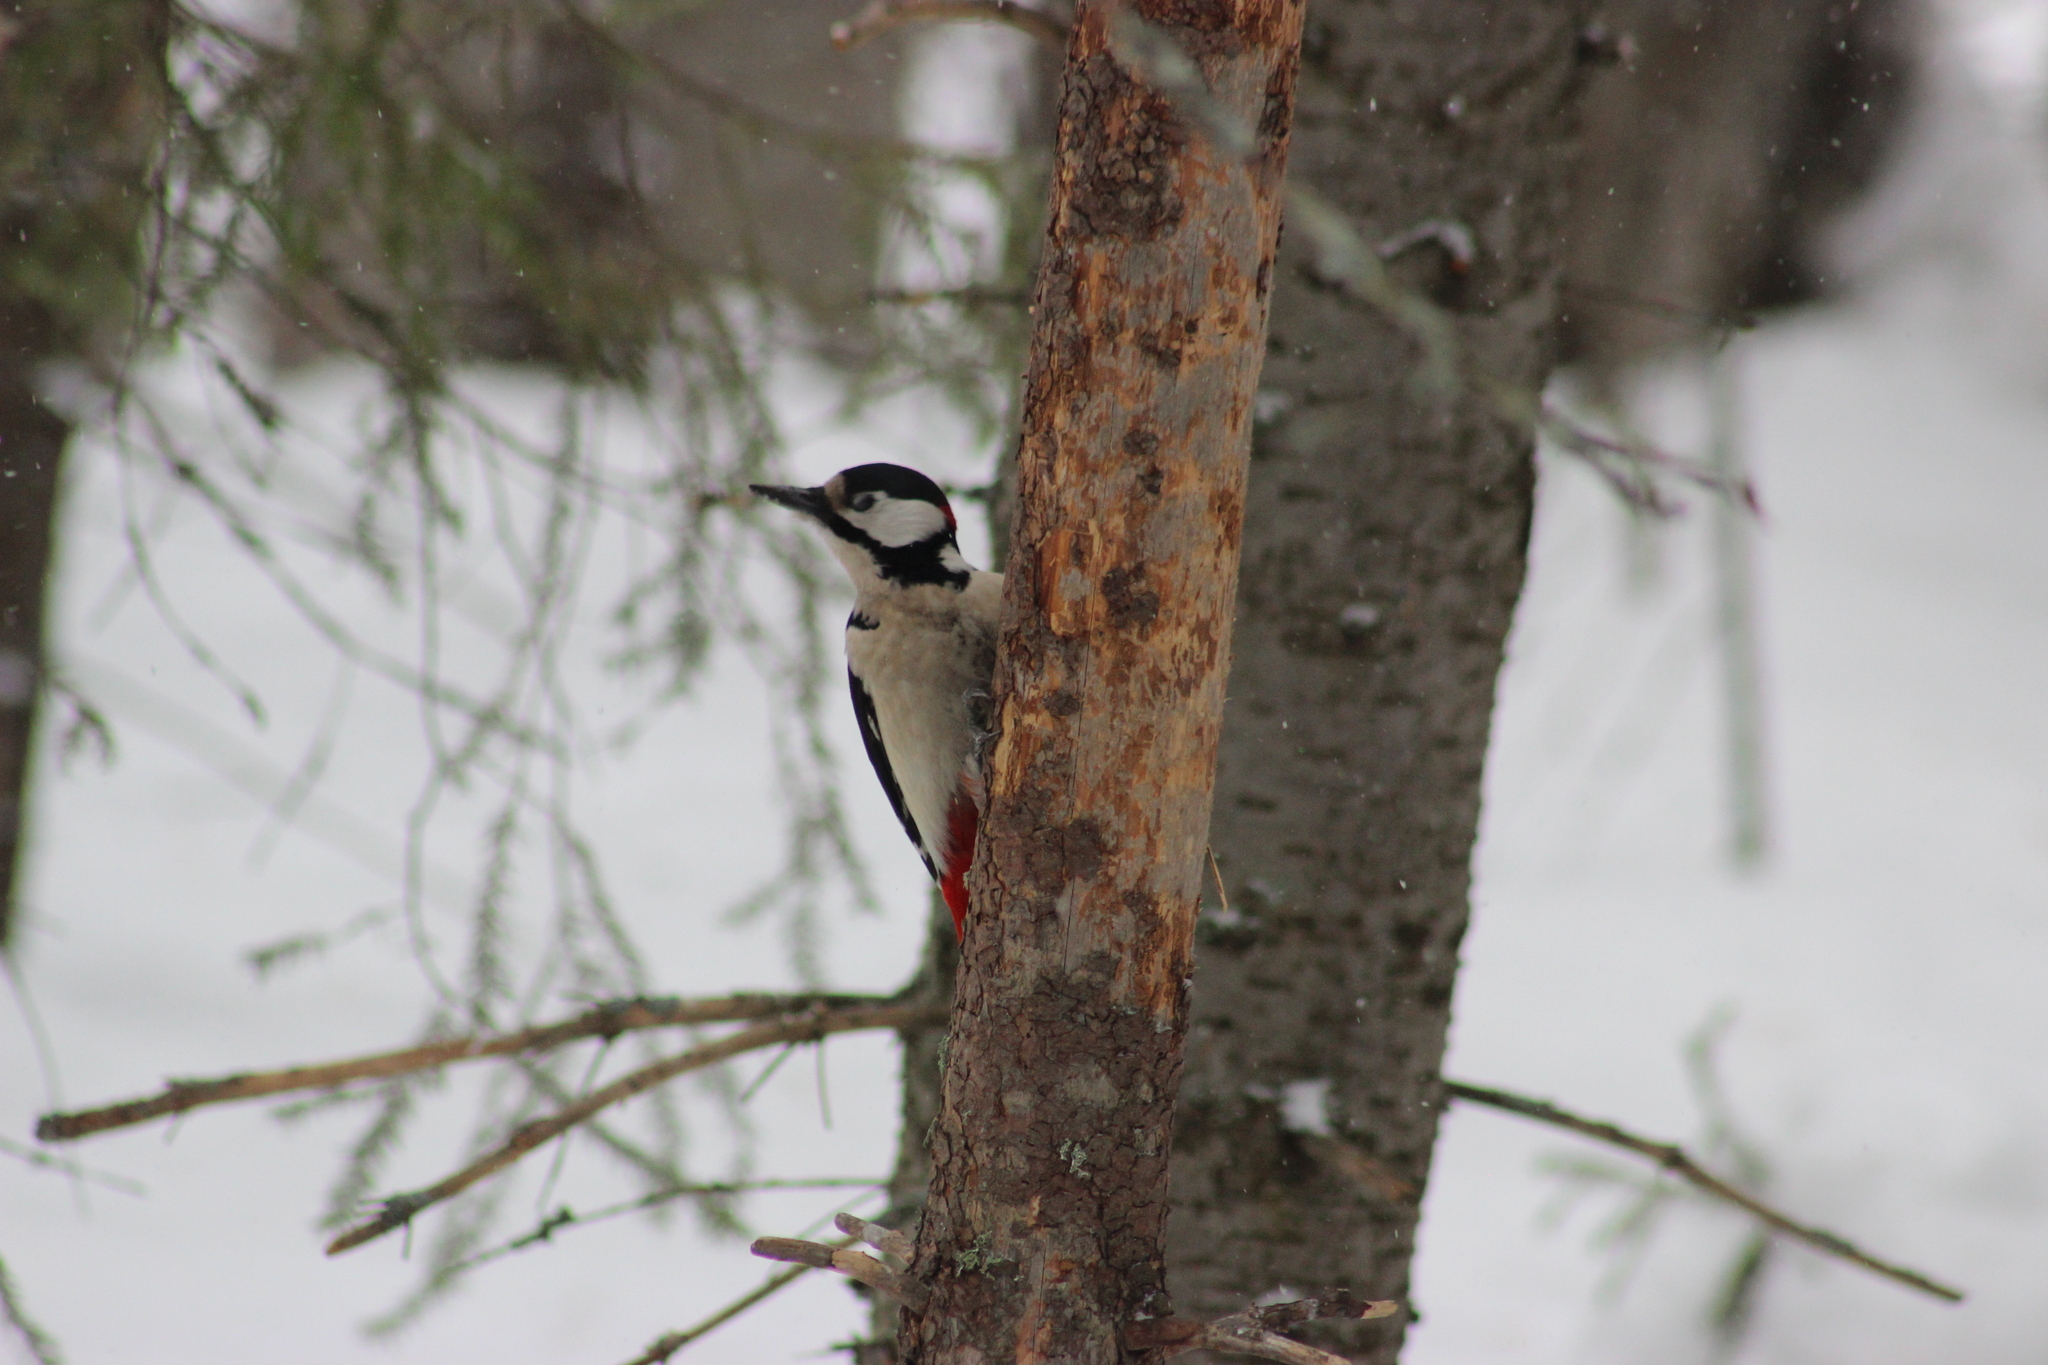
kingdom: Animalia
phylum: Chordata
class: Aves
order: Piciformes
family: Picidae
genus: Dendrocopos
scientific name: Dendrocopos major
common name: Great spotted woodpecker
